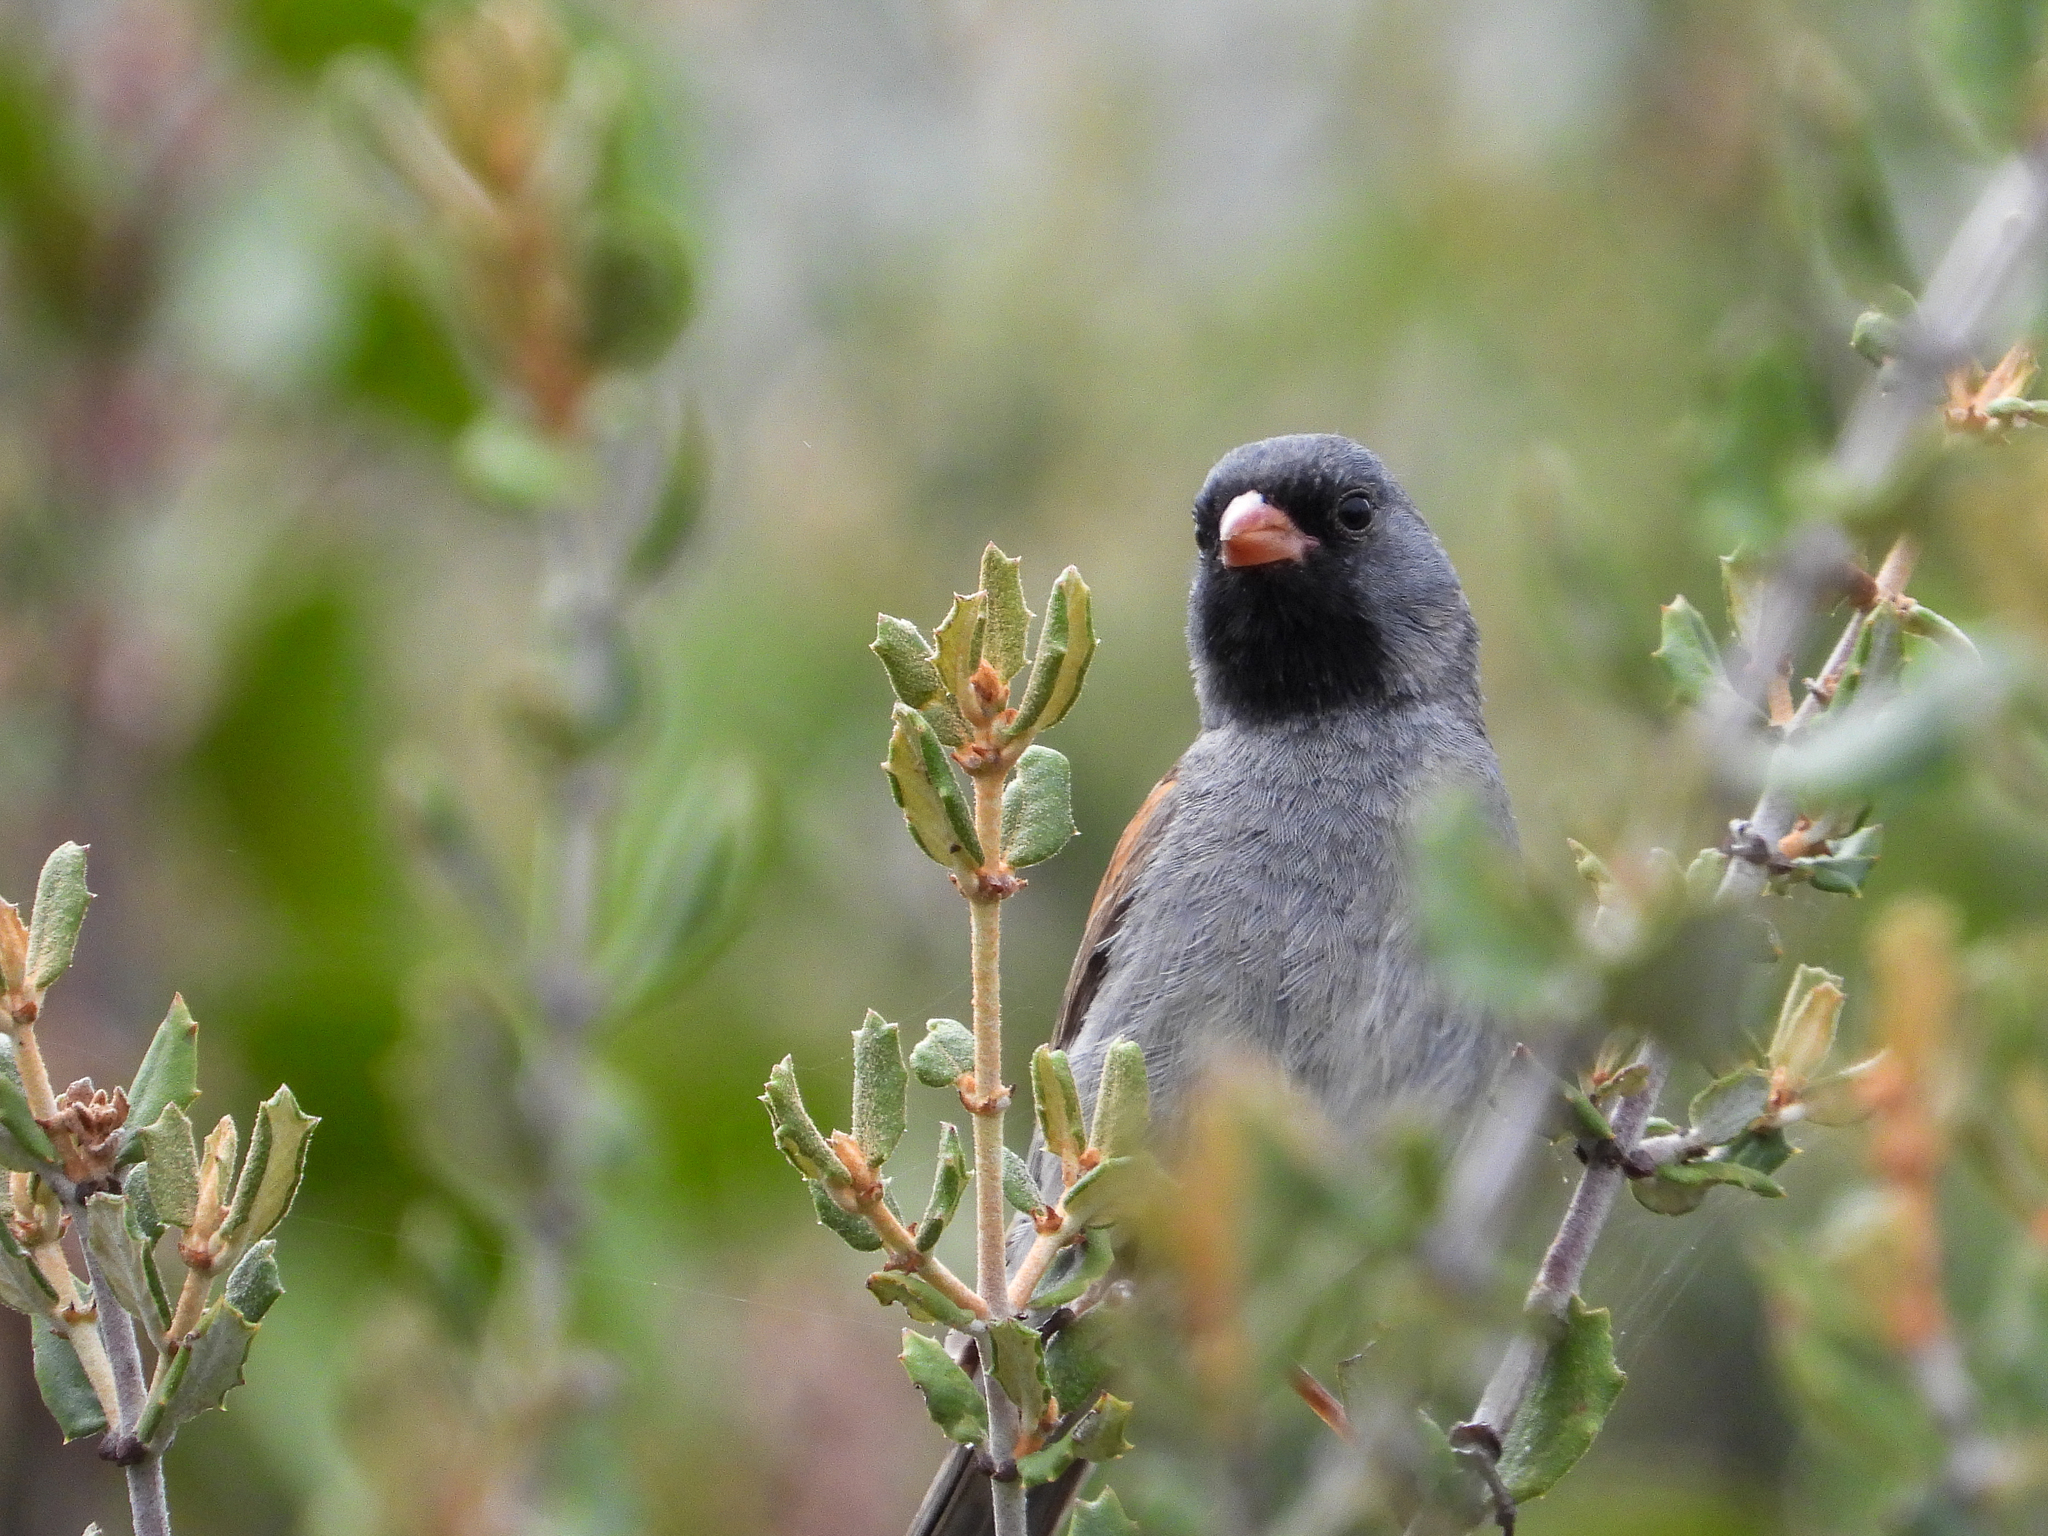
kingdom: Animalia
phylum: Chordata
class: Aves
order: Passeriformes
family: Passerellidae
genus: Spizella
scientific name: Spizella atrogularis
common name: Black-chinned sparrow
